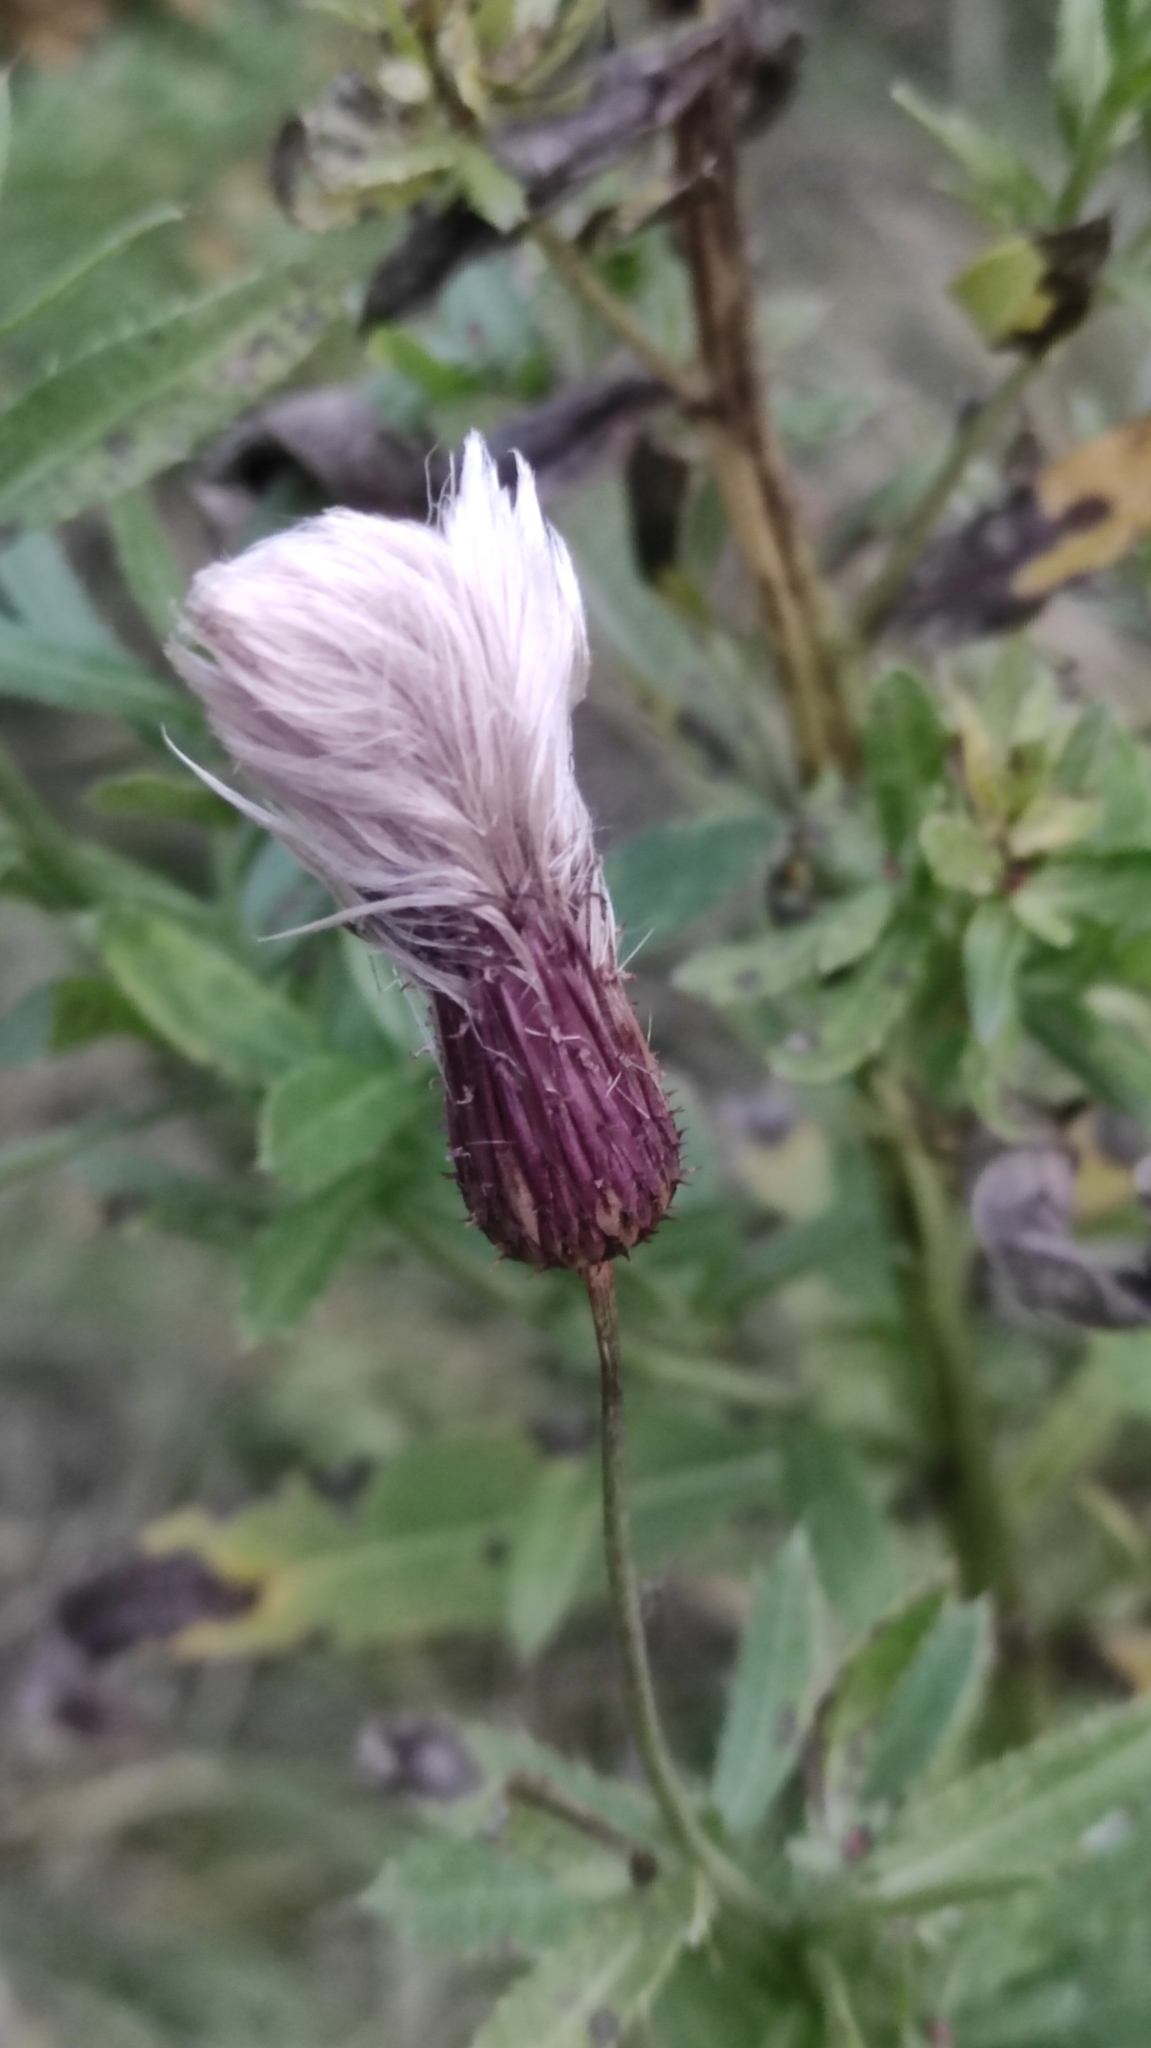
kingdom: Plantae
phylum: Tracheophyta
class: Magnoliopsida
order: Asterales
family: Asteraceae
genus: Cirsium
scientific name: Cirsium arvense
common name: Creeping thistle
